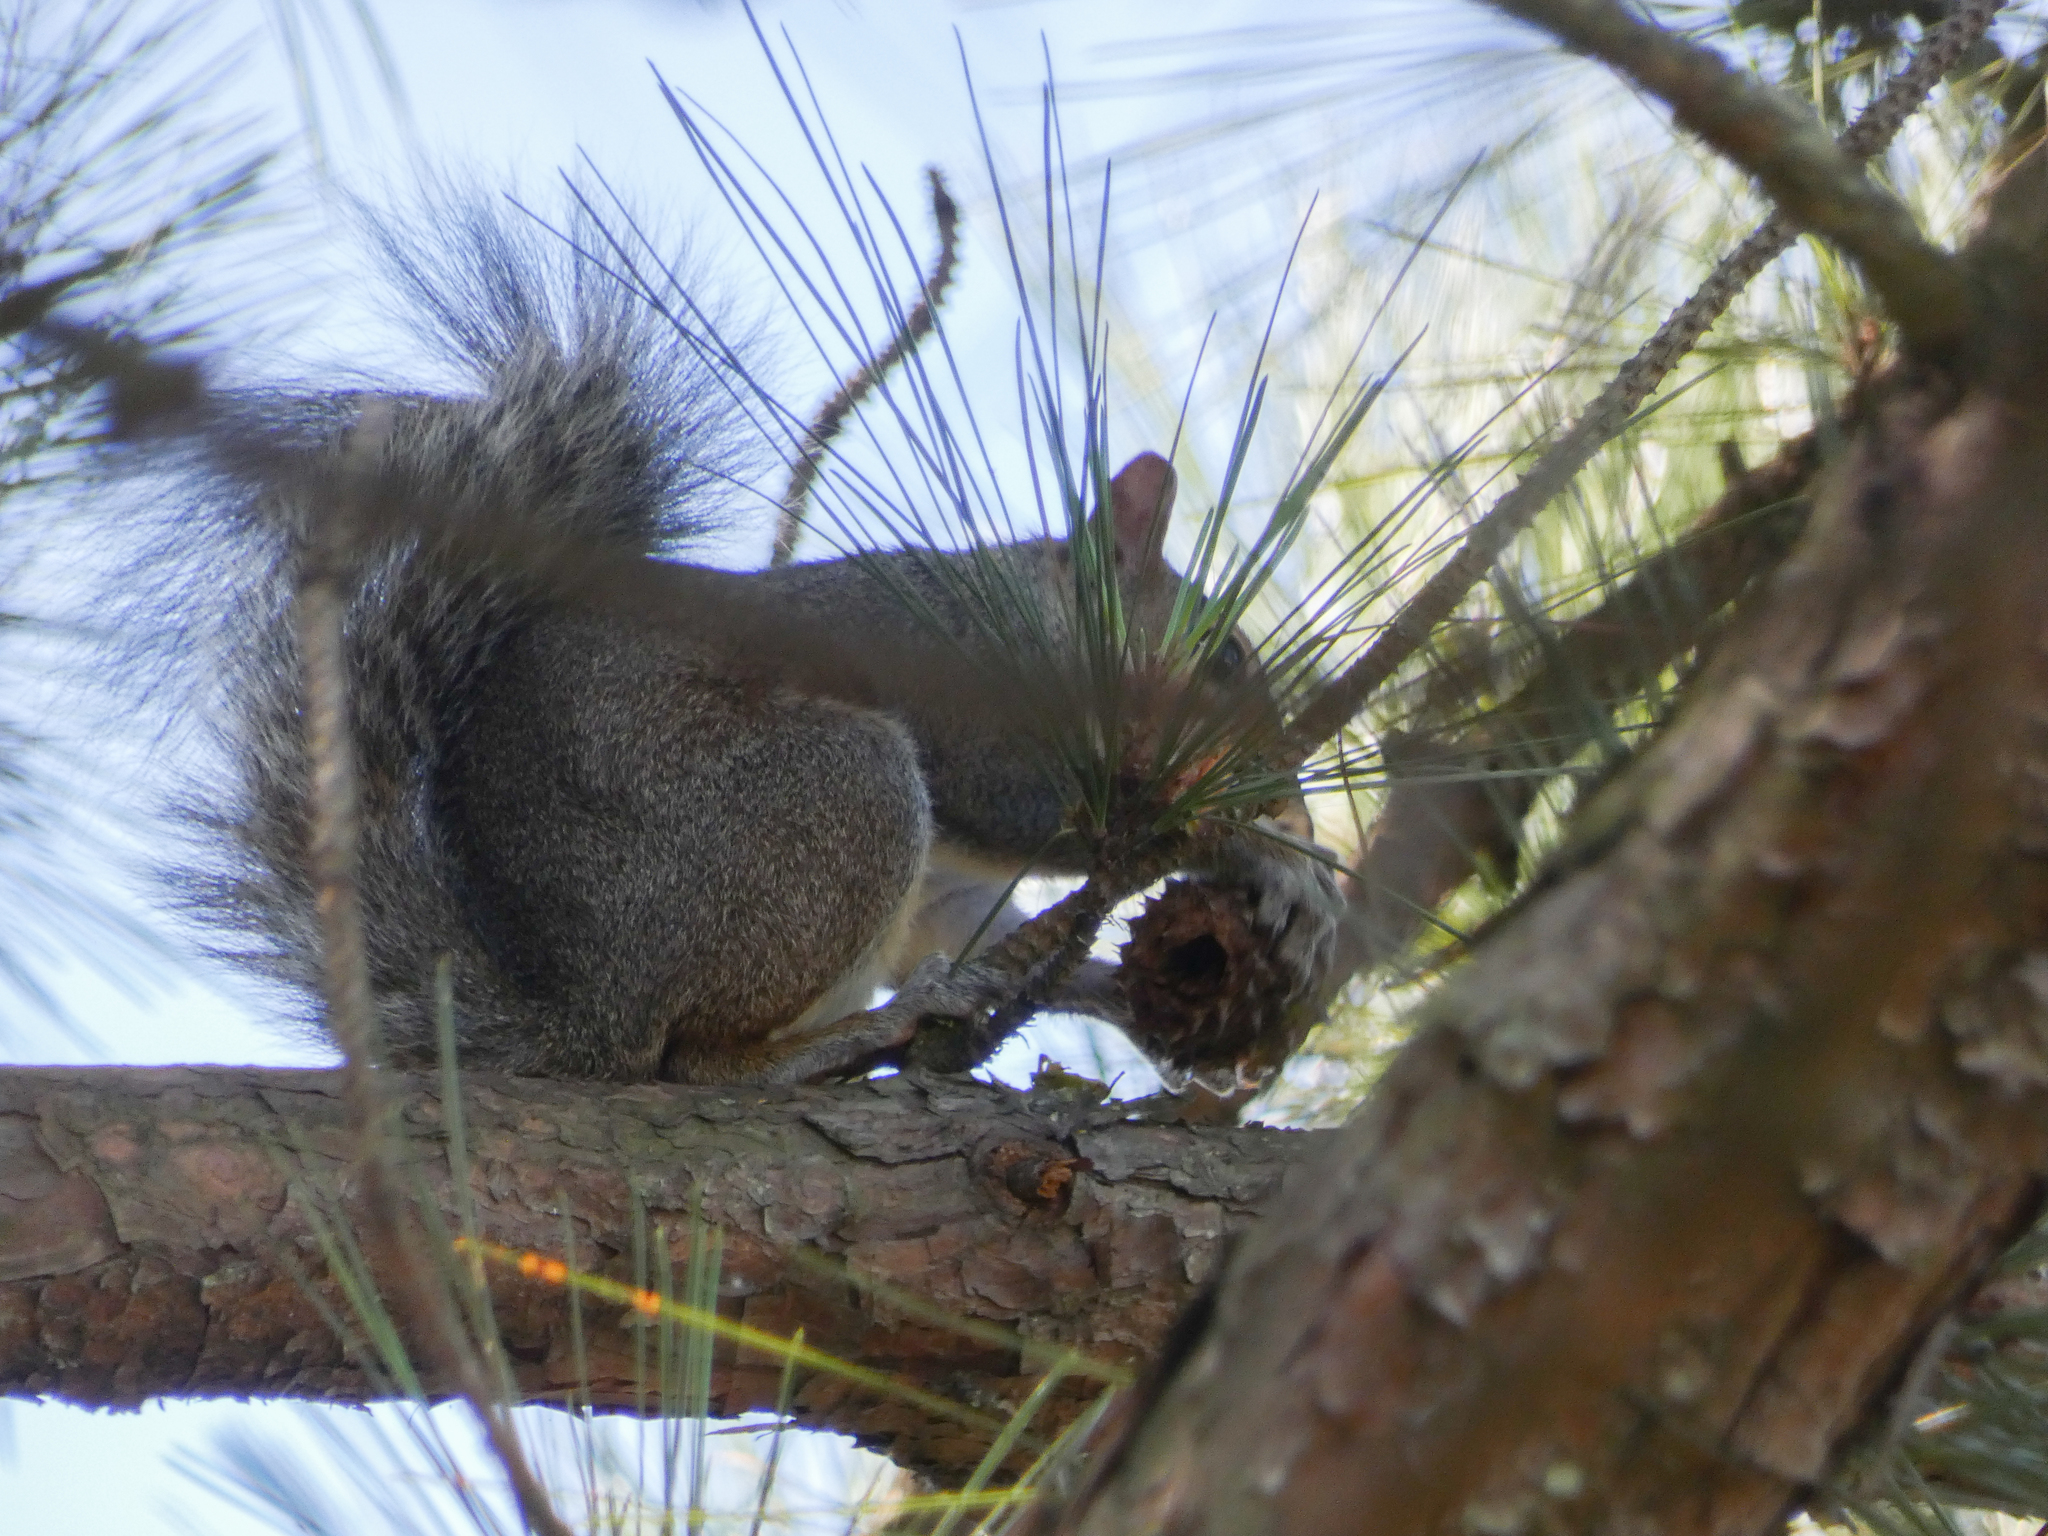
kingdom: Animalia
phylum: Chordata
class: Mammalia
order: Rodentia
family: Sciuridae
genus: Sciurus
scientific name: Sciurus carolinensis
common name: Eastern gray squirrel
